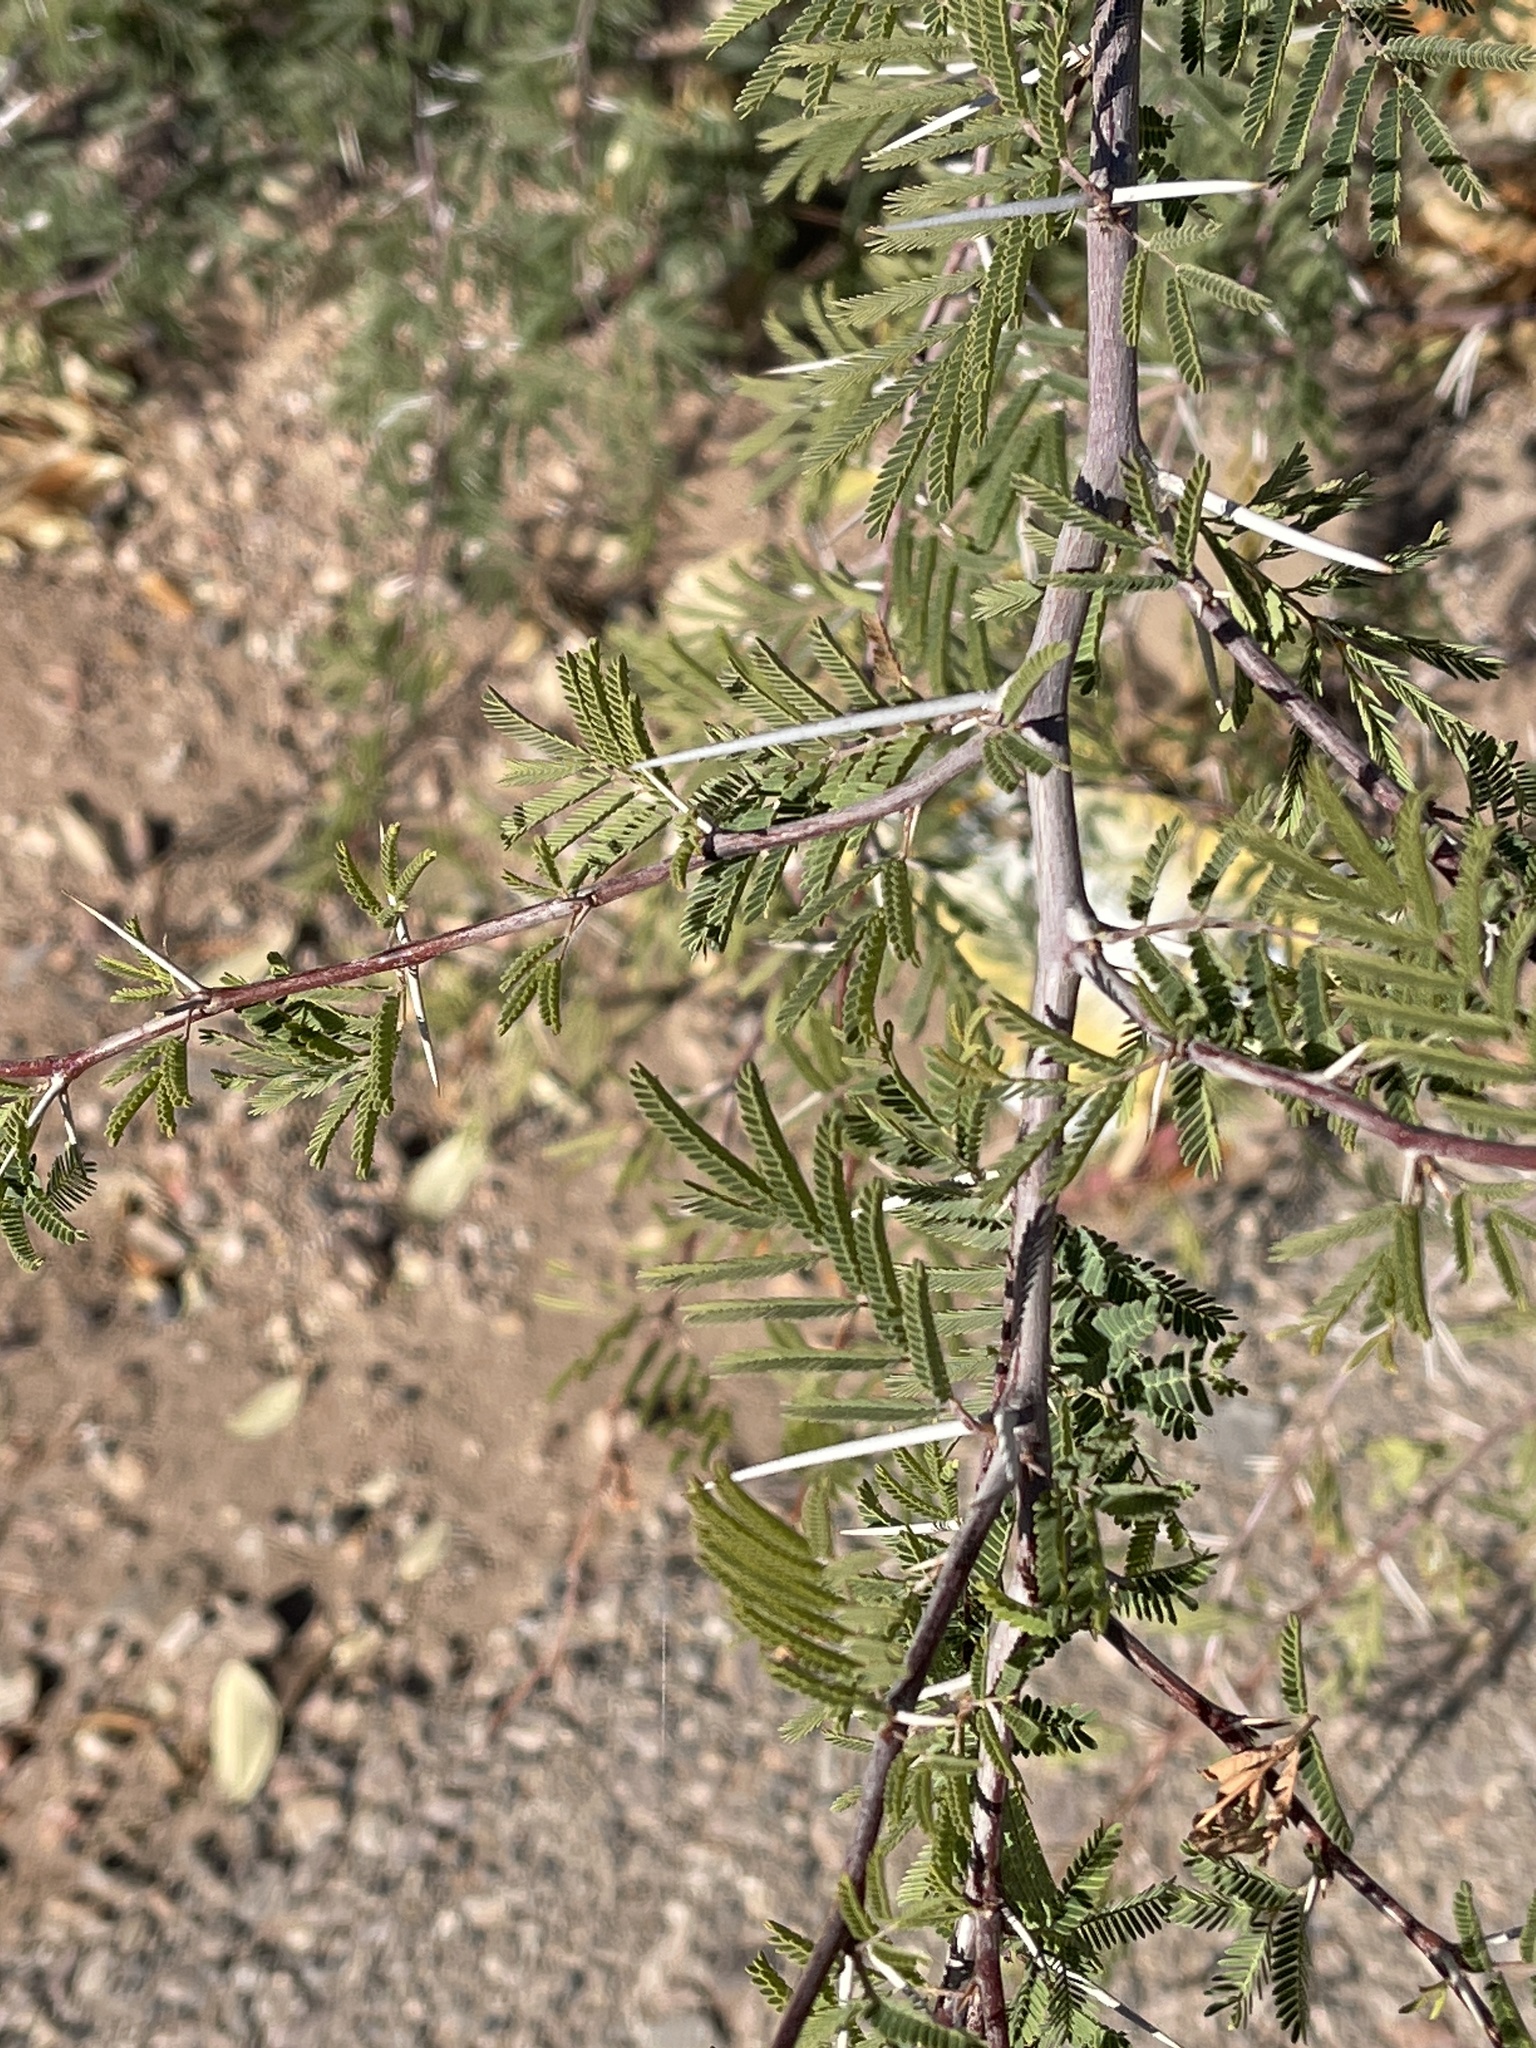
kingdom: Plantae
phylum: Tracheophyta
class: Magnoliopsida
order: Fabales
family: Fabaceae
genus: Vachellia
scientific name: Vachellia constricta
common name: Mescat acacia
